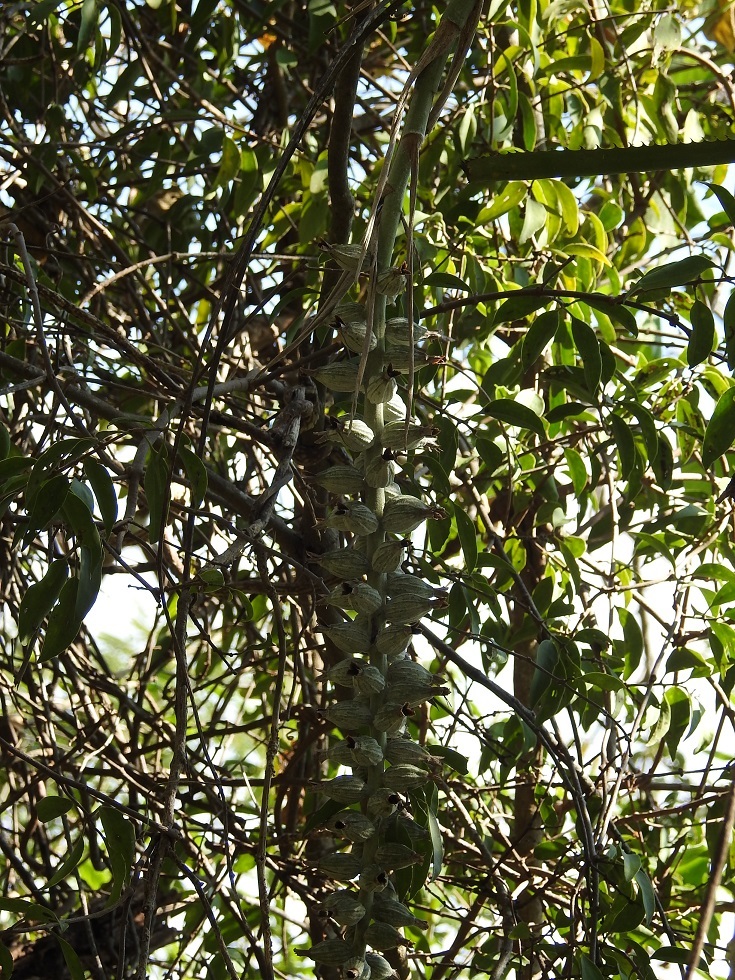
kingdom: Plantae
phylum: Tracheophyta
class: Liliopsida
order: Poales
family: Bromeliaceae
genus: Billbergia
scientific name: Billbergia pallidiflora
